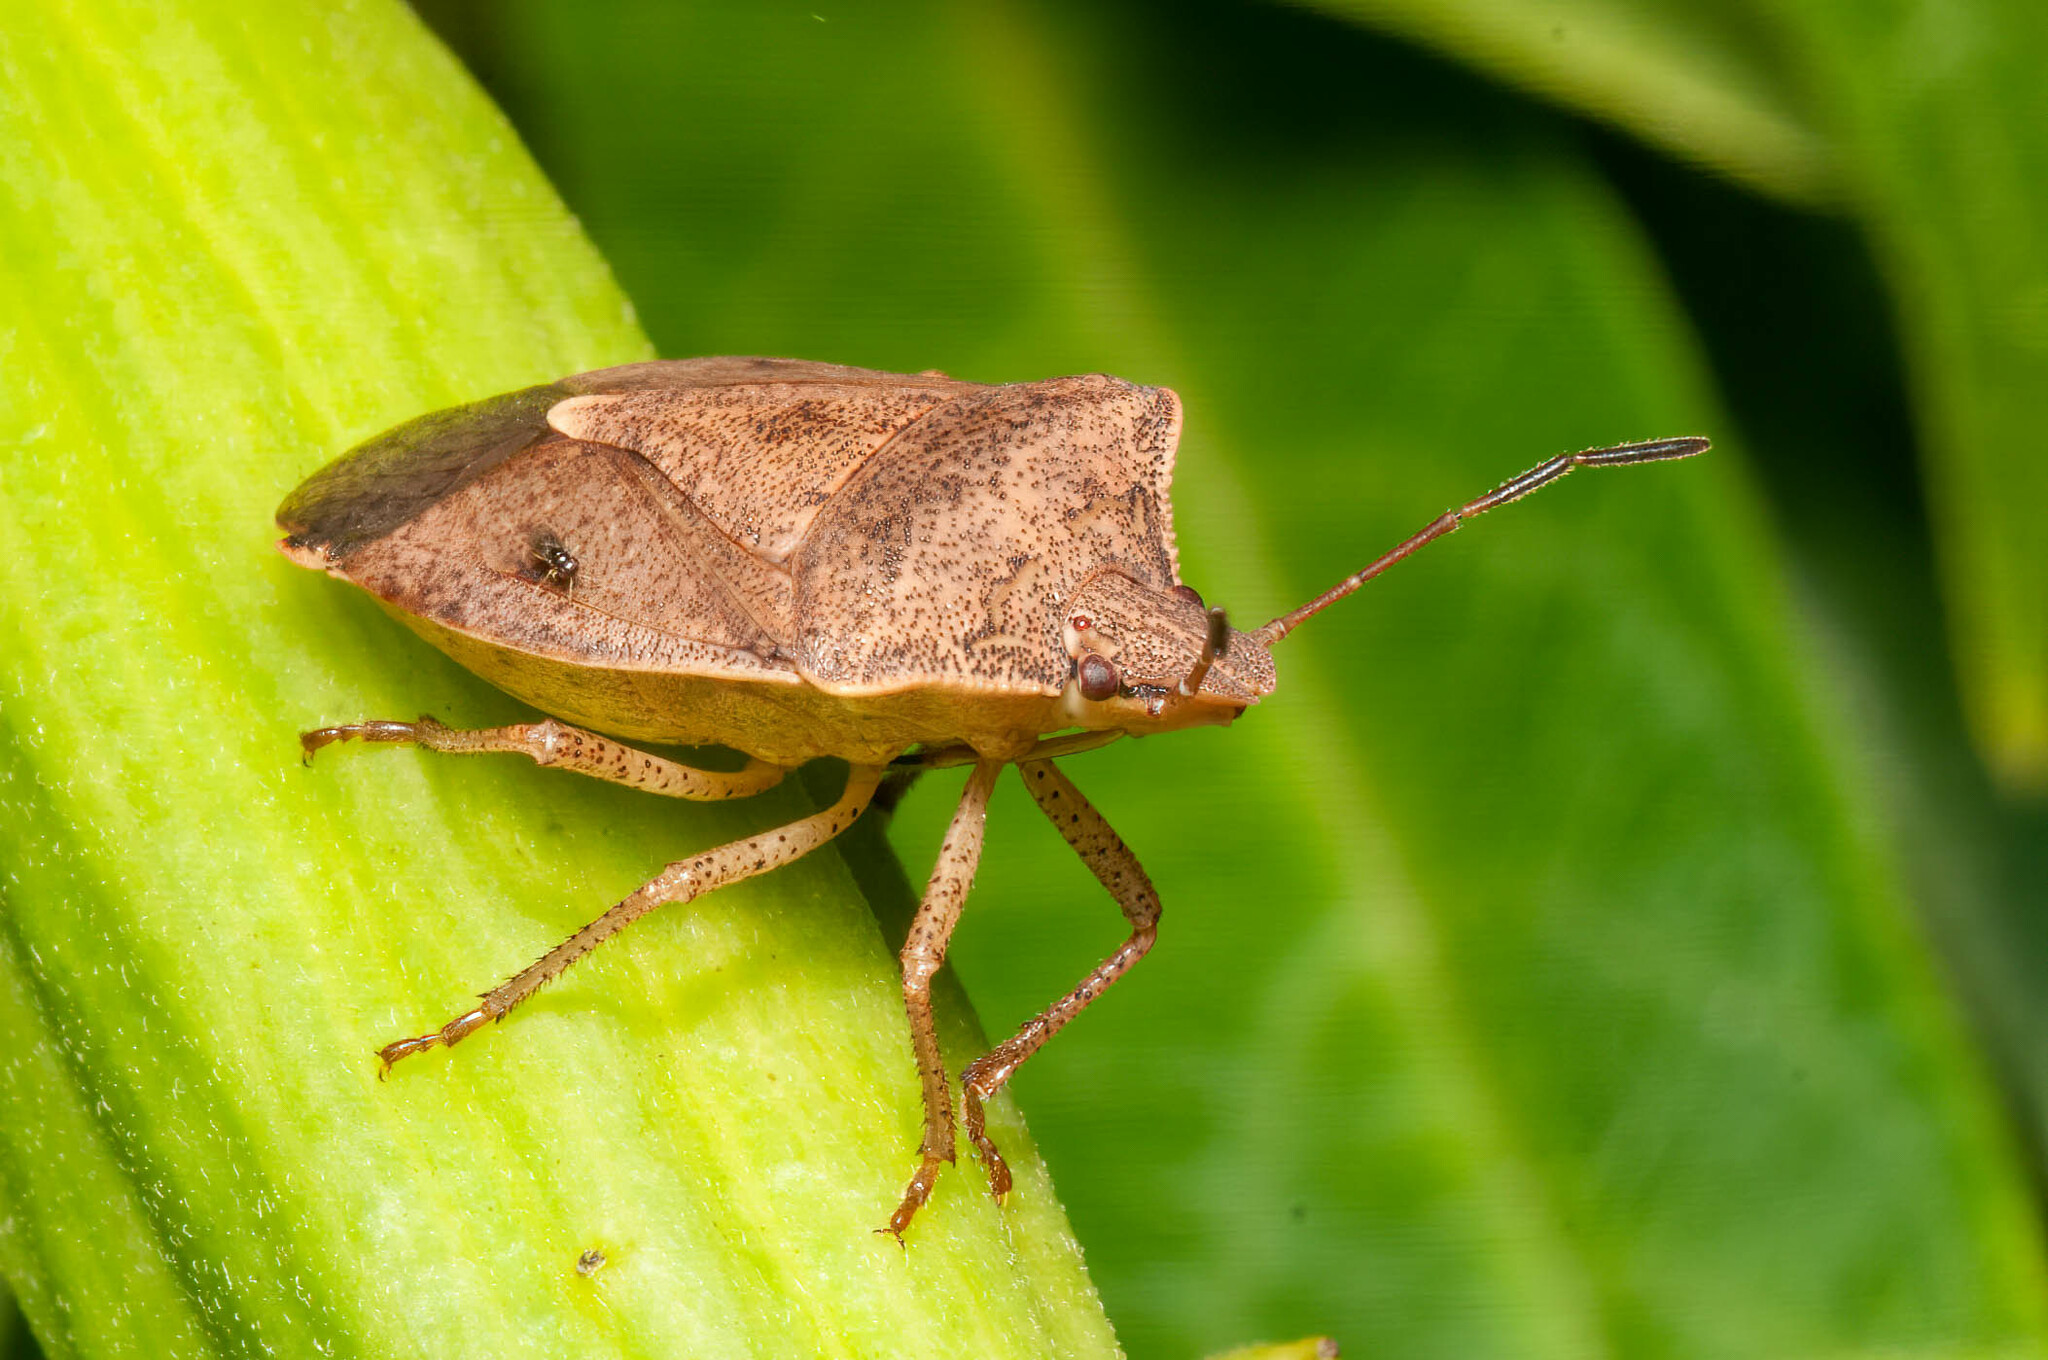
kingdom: Animalia
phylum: Arthropoda
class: Insecta
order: Hemiptera
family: Pentatomidae
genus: Euschistus
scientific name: Euschistus servus
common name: Brown stink bug
